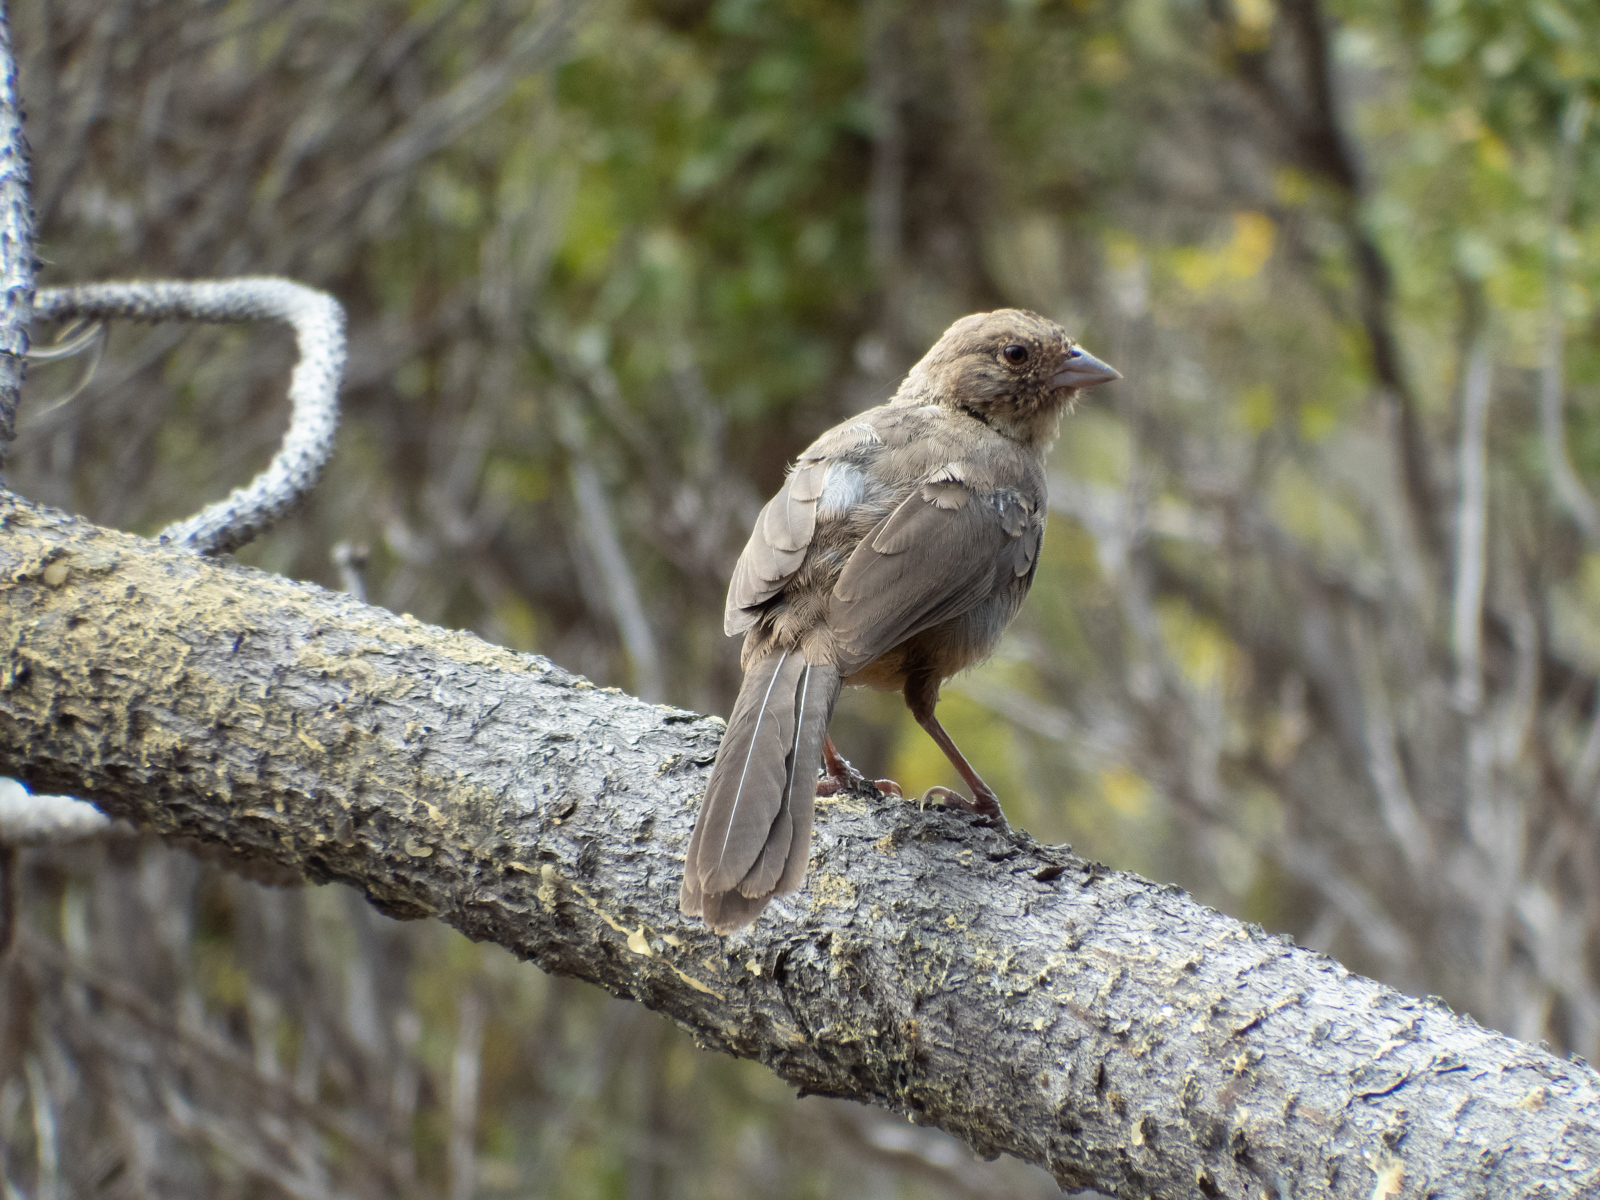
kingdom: Animalia
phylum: Chordata
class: Aves
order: Passeriformes
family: Passerellidae
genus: Melozone
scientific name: Melozone crissalis
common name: California towhee
